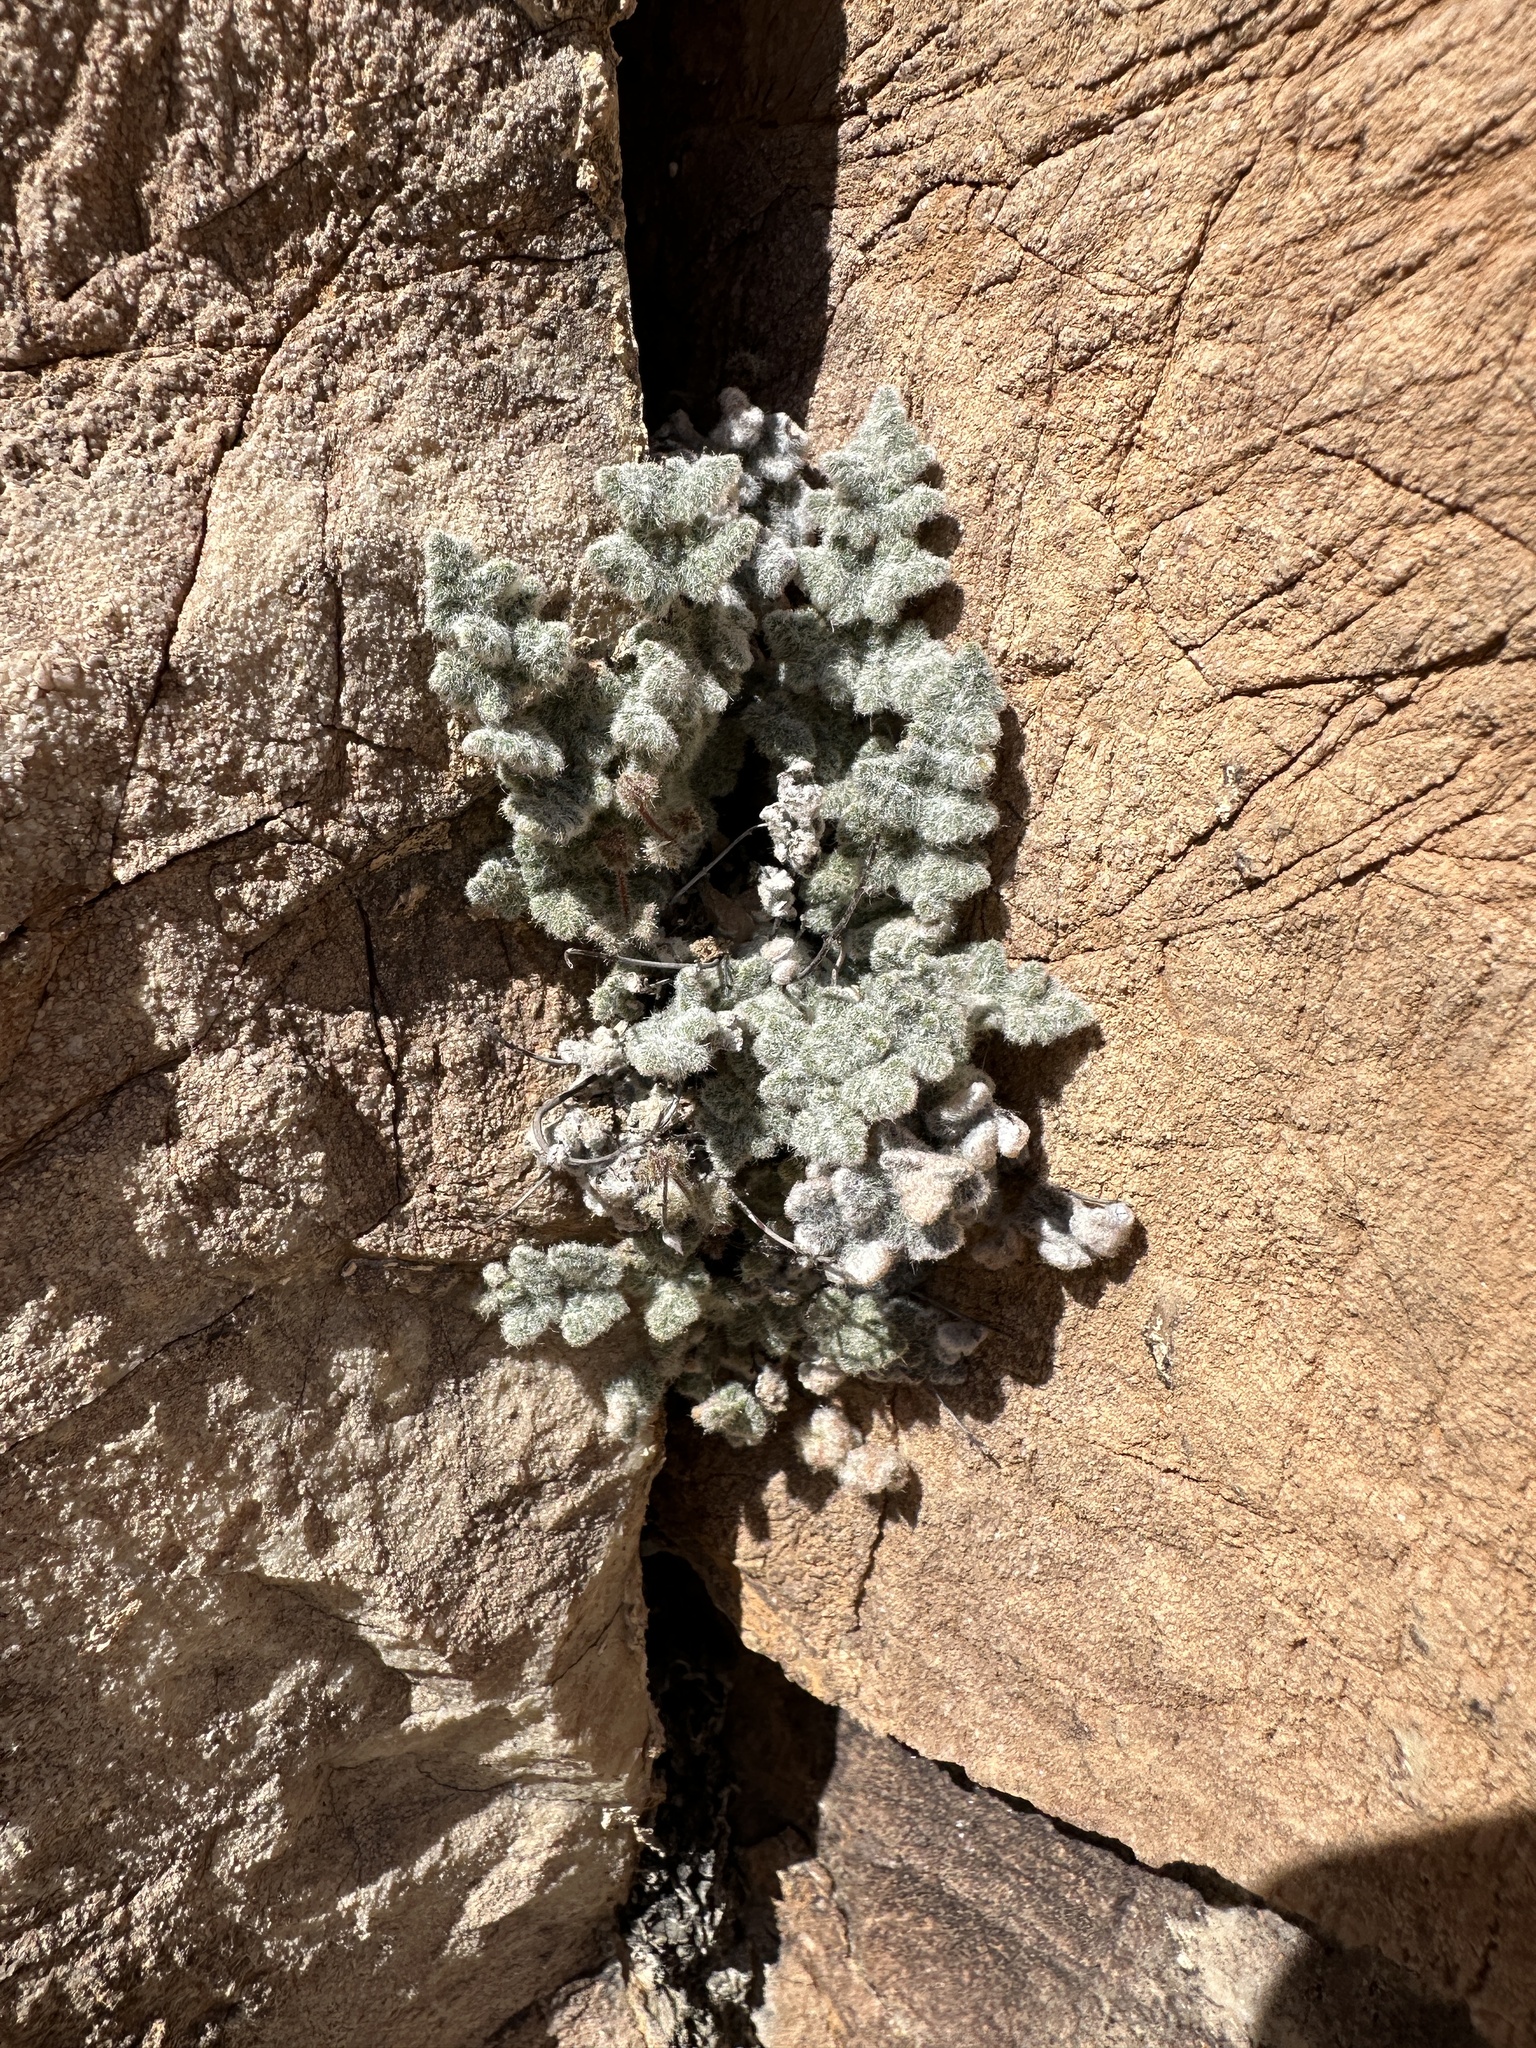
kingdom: Plantae
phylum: Tracheophyta
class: Polypodiopsida
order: Polypodiales
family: Pteridaceae
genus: Myriopteris
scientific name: Myriopteris parryi
